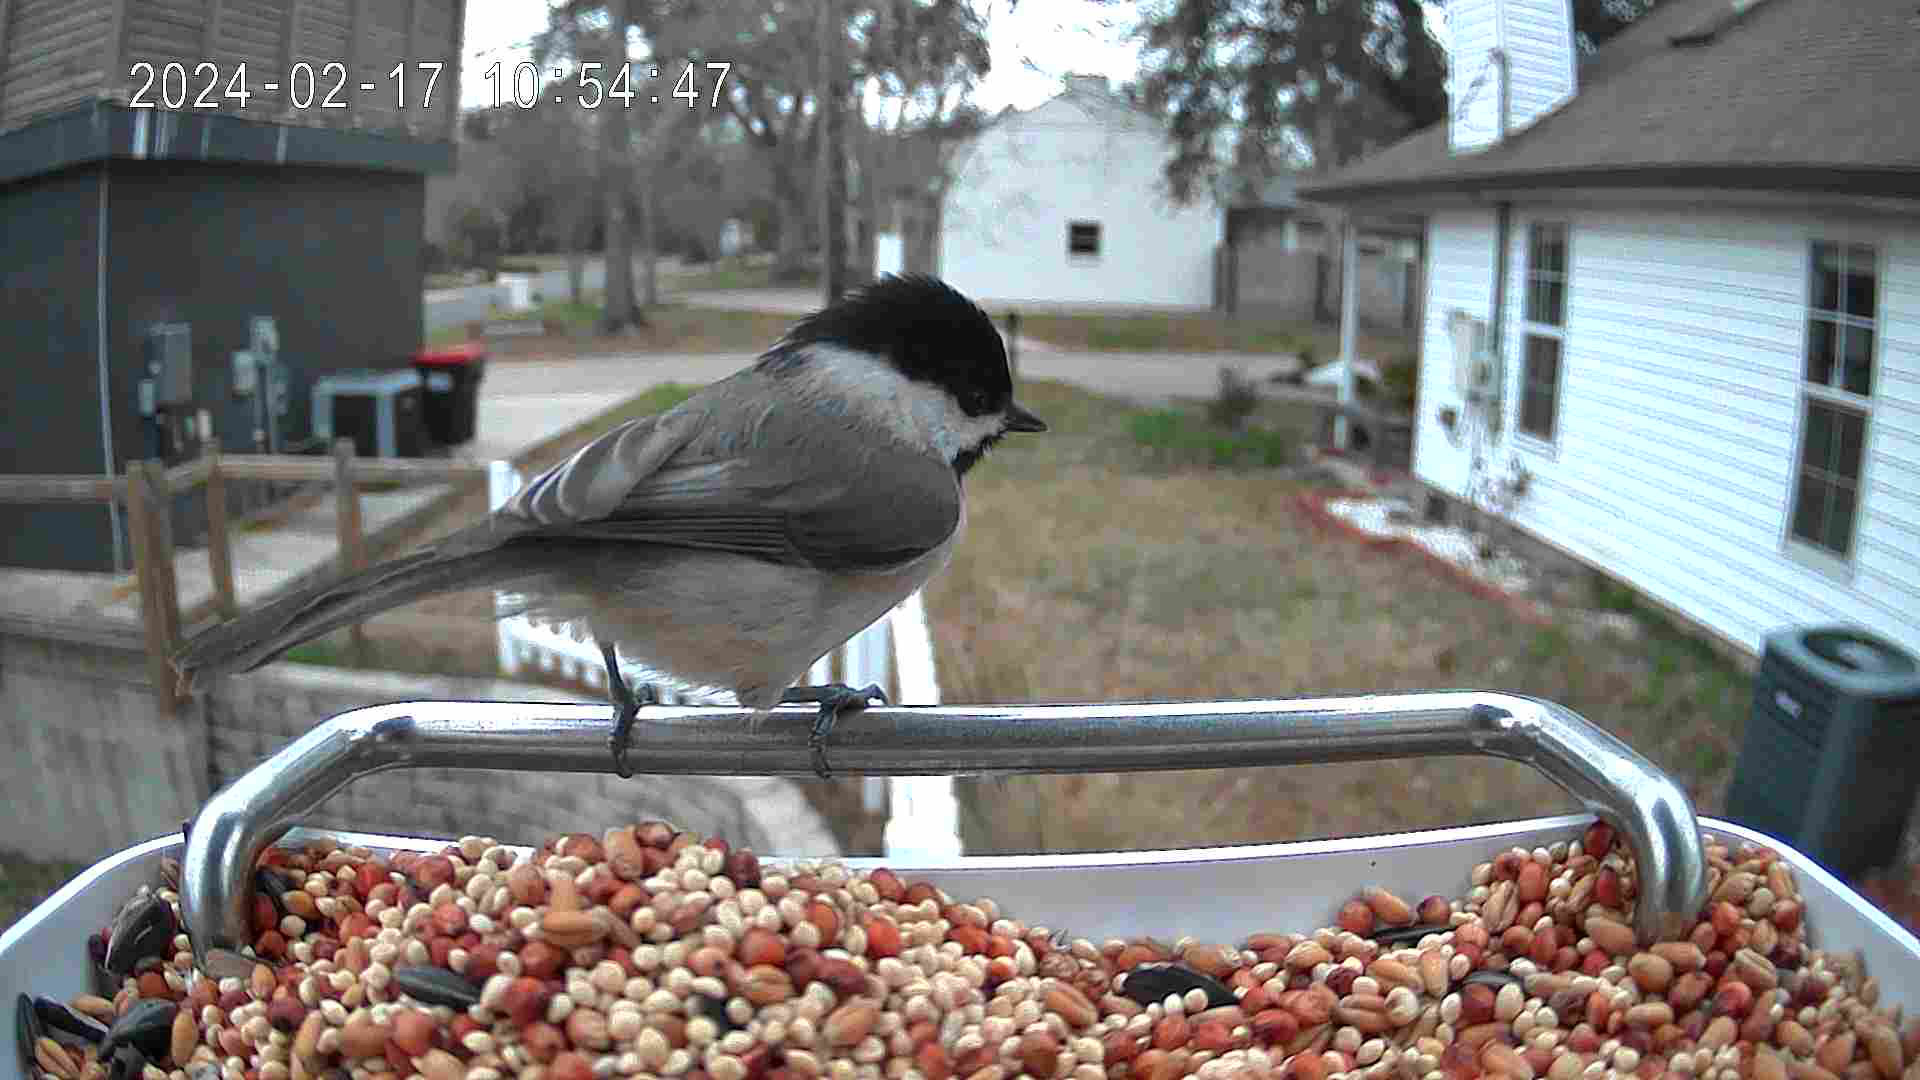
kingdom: Animalia
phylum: Chordata
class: Aves
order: Passeriformes
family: Paridae
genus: Poecile
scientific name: Poecile carolinensis
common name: Carolina chickadee
